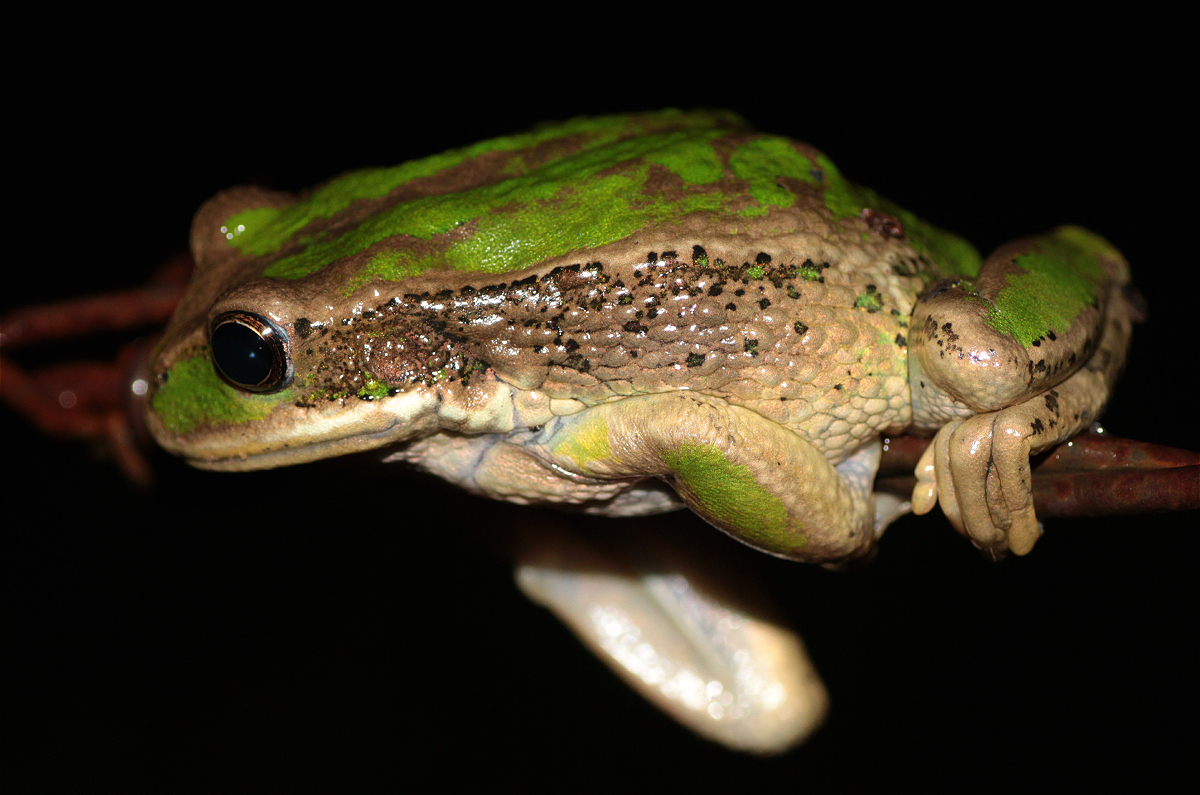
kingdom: Animalia
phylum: Chordata
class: Amphibia
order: Anura
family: Hemiphractidae
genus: Gastrotheca
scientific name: Gastrotheca cuencana
